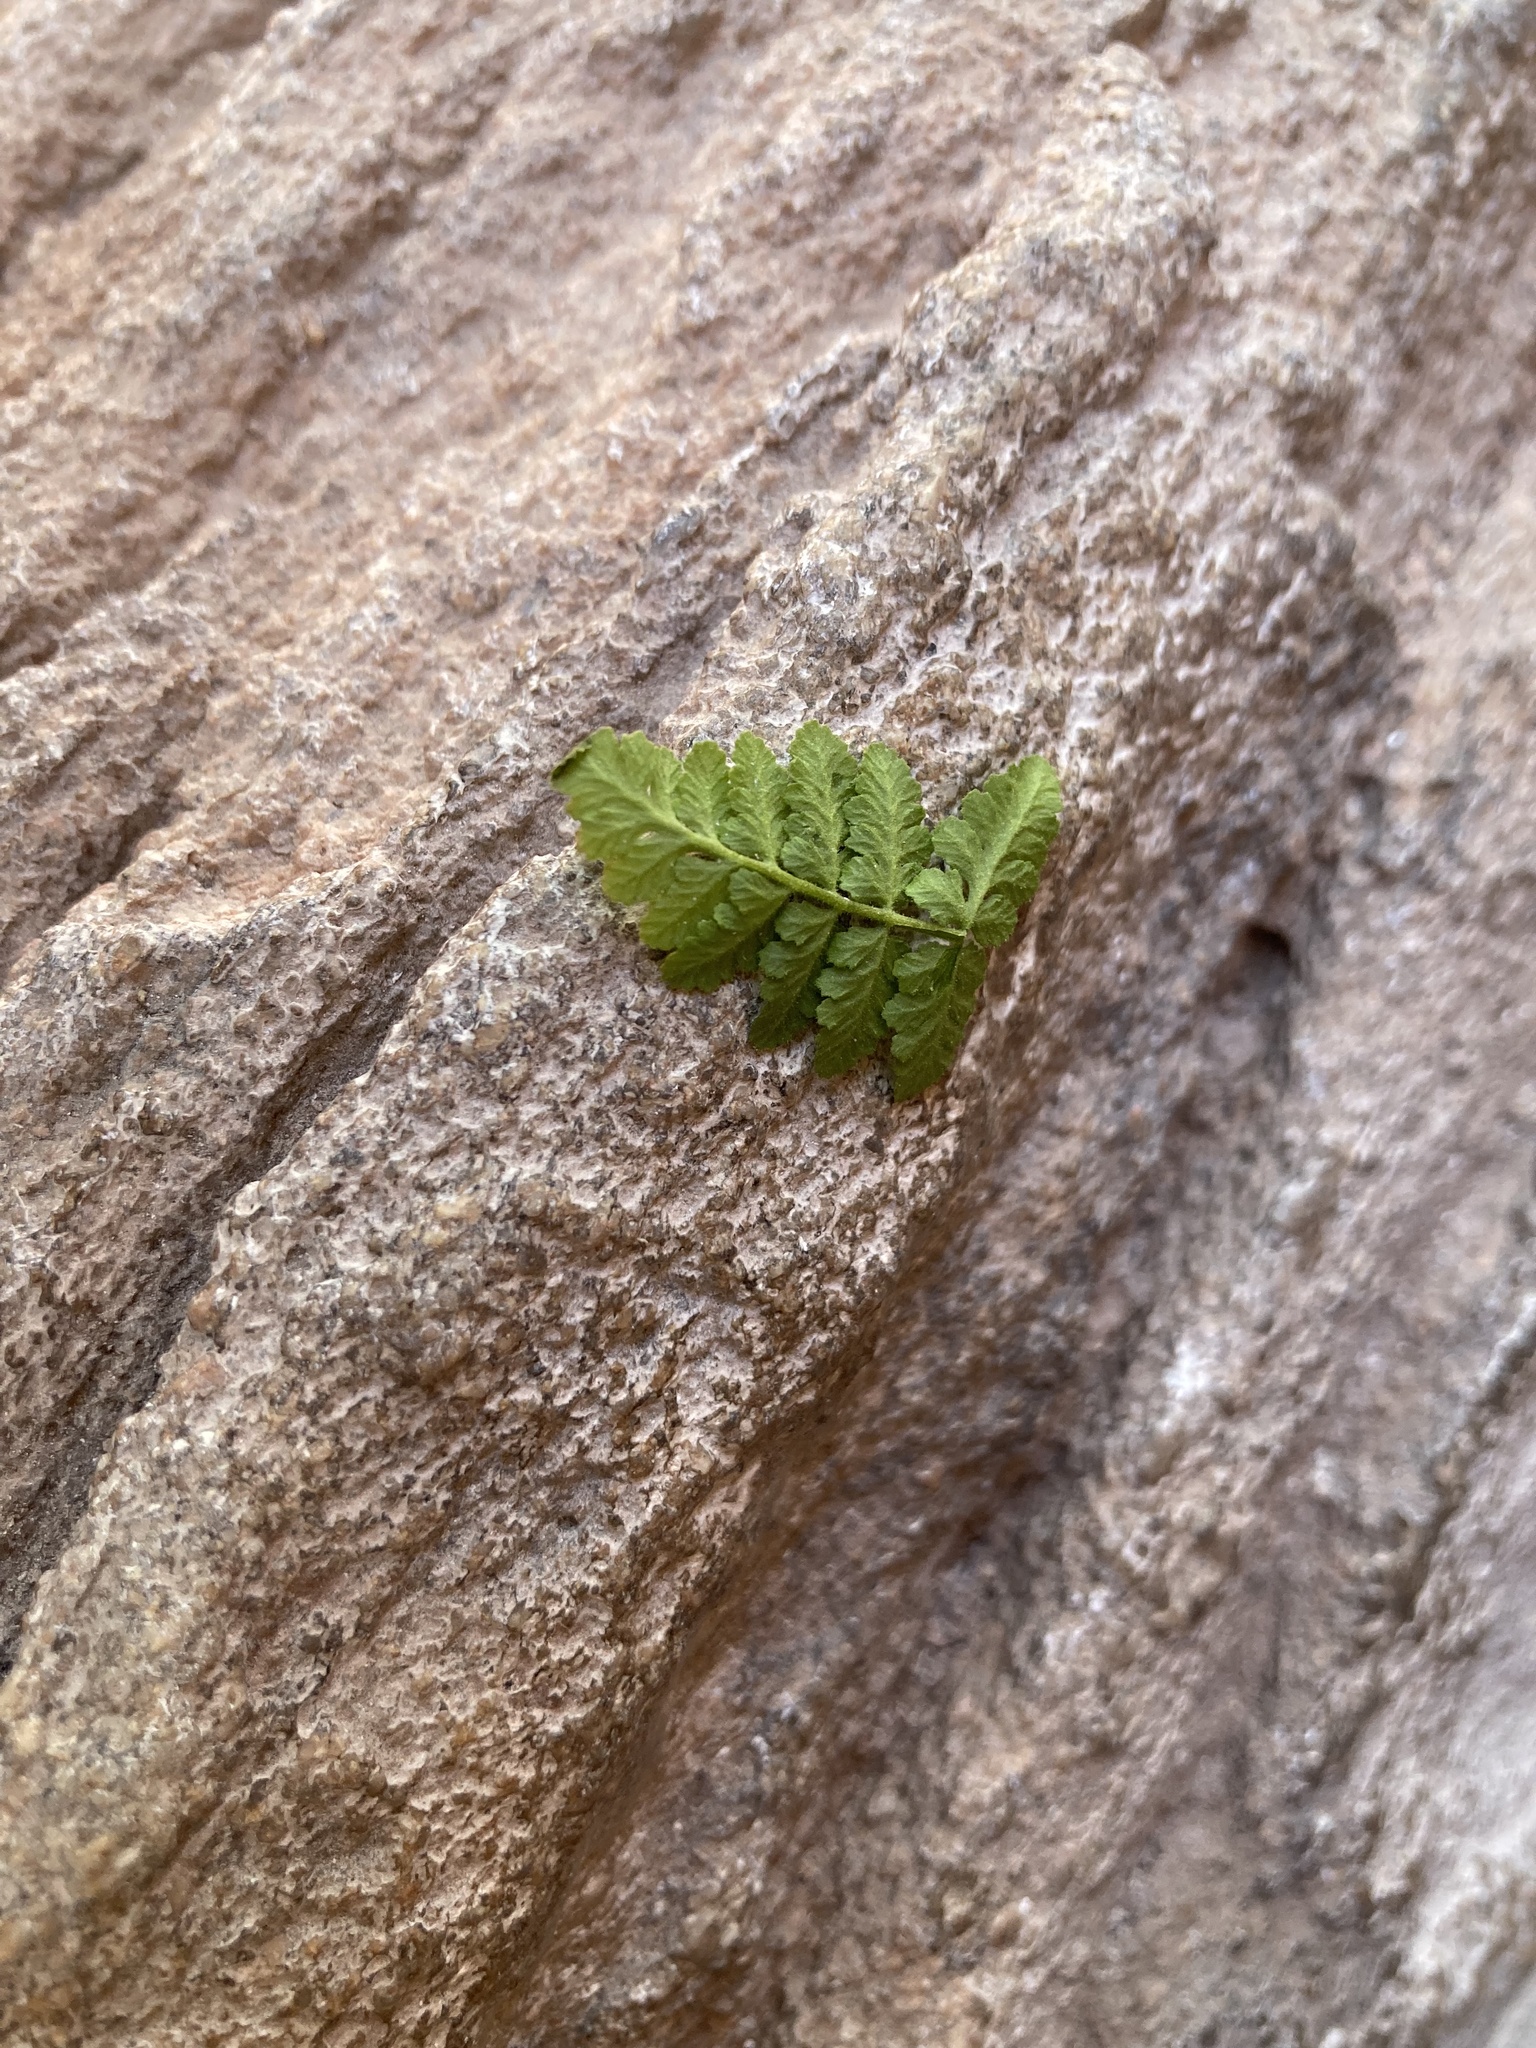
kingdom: Plantae
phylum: Tracheophyta
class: Polypodiopsida
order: Polypodiales
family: Cystopteridaceae
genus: Cystopteris
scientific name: Cystopteris fragilis
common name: Brittle bladder fern
